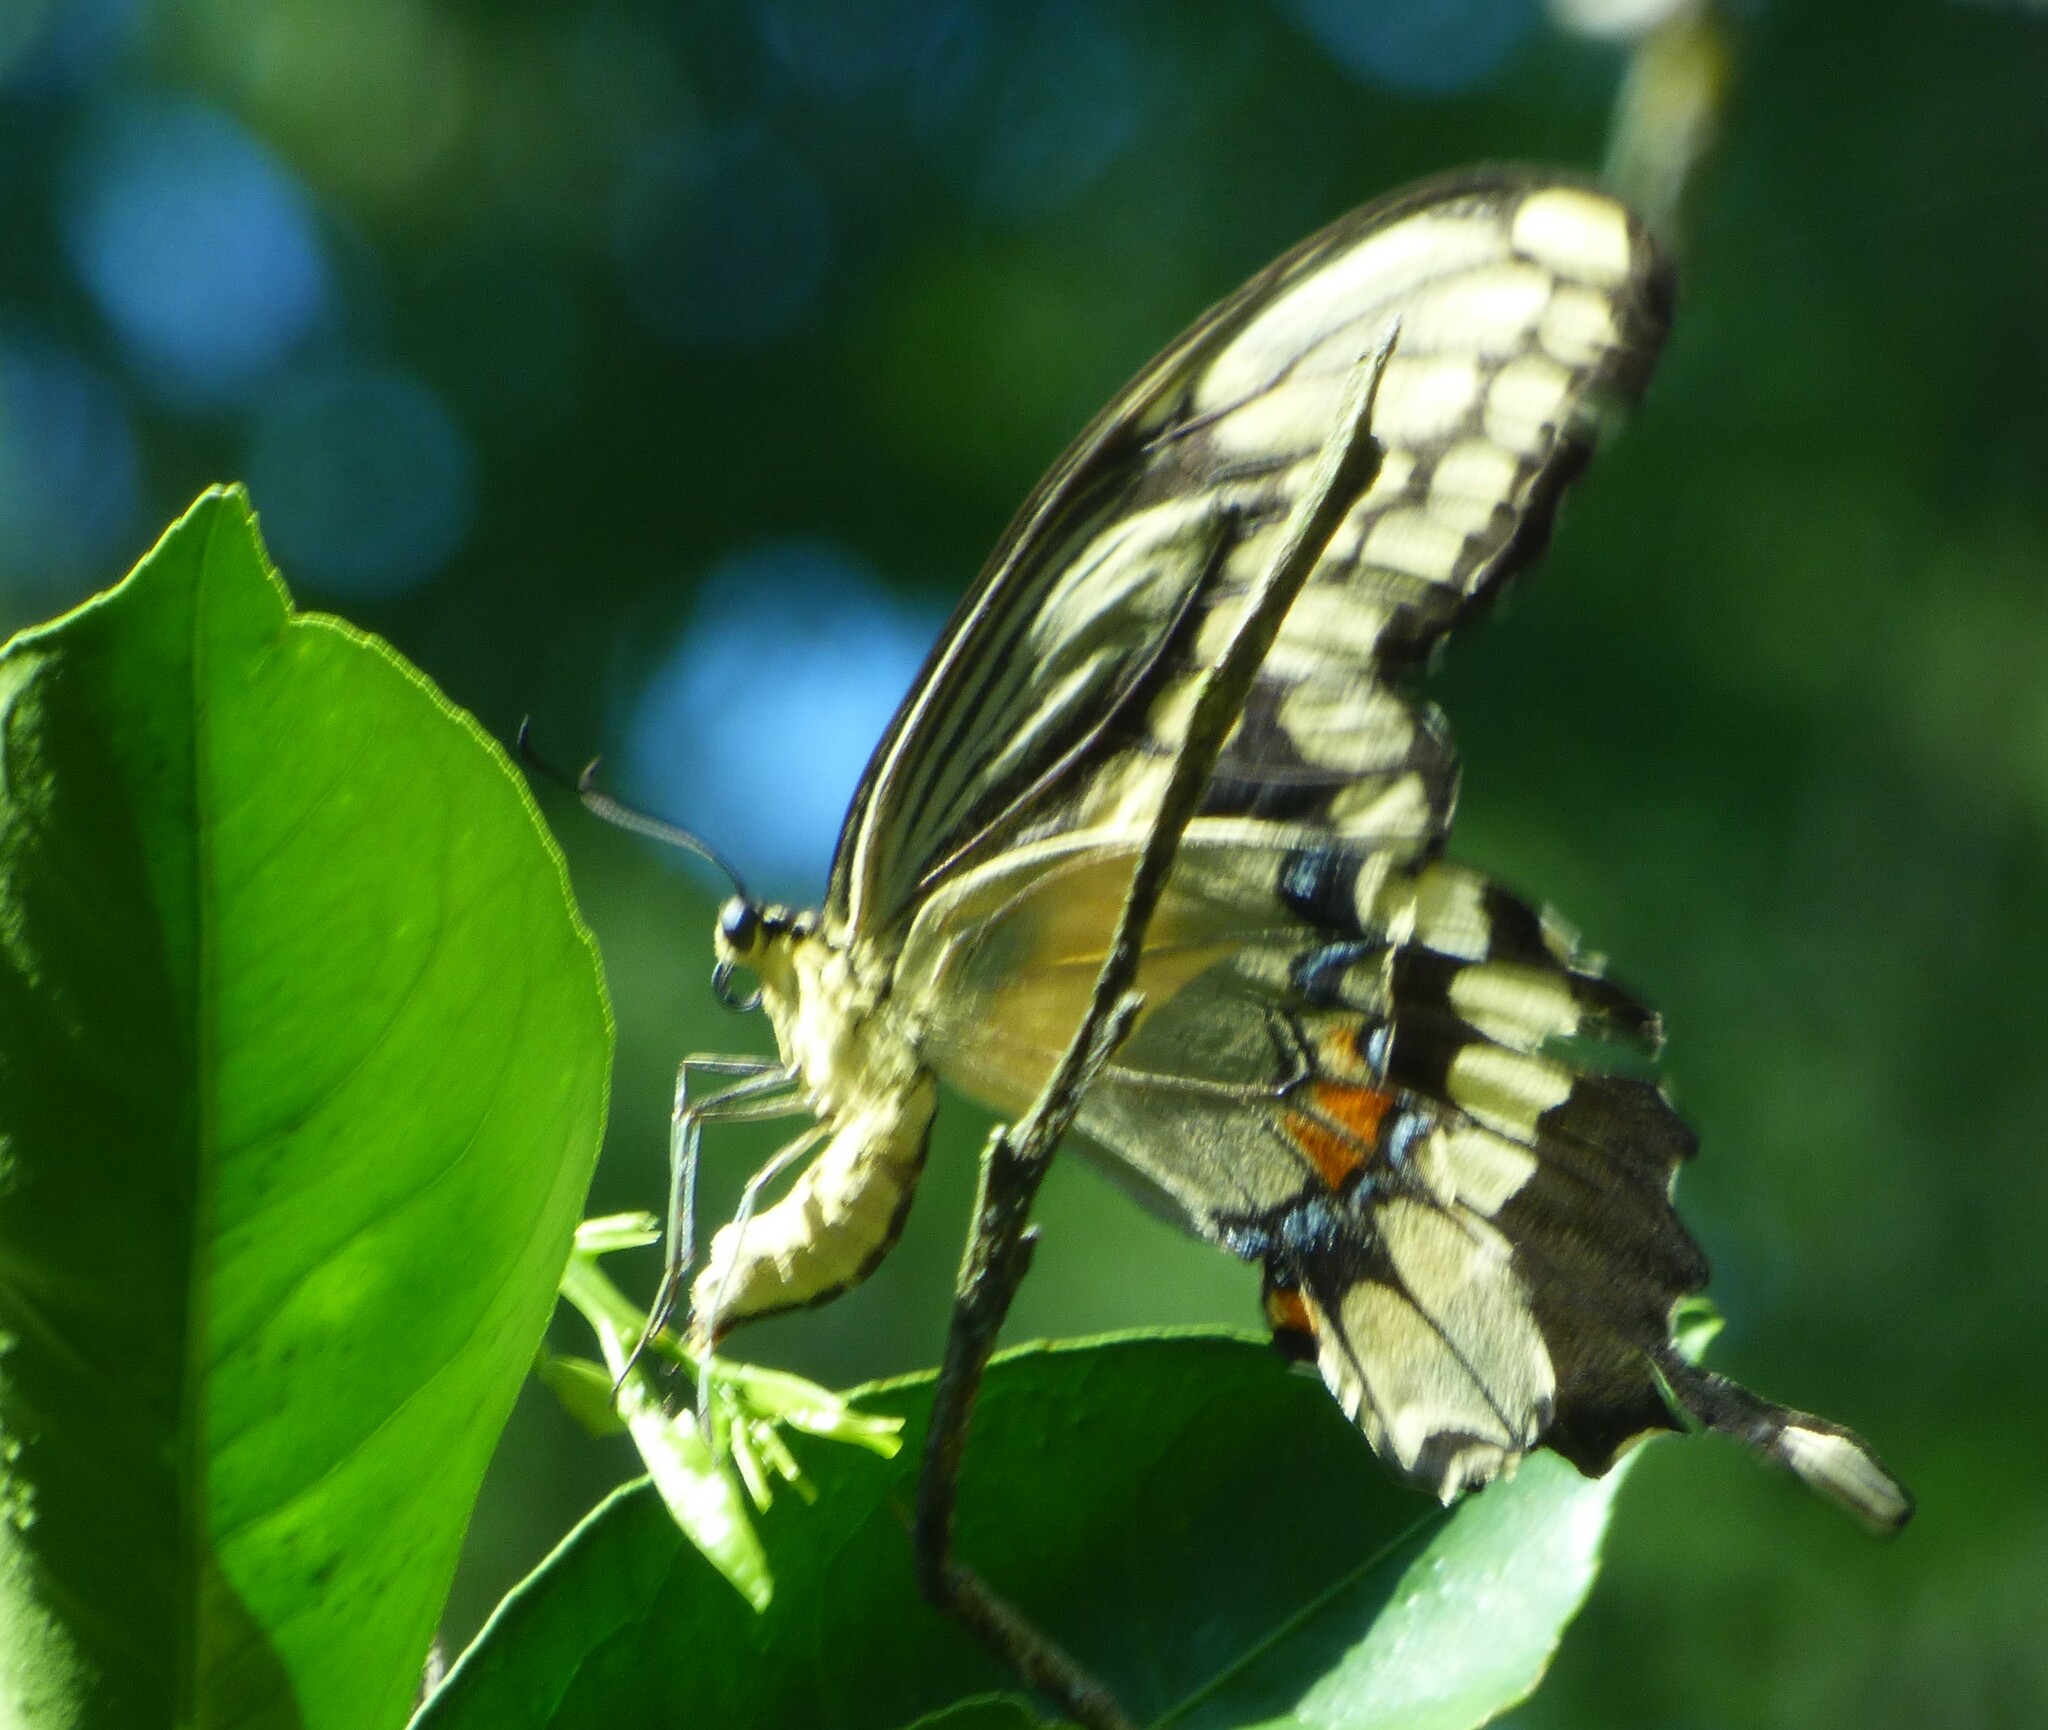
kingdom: Animalia
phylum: Arthropoda
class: Insecta
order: Lepidoptera
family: Papilionidae
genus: Papilio
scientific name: Papilio cresphontes
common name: Giant swallowtail
